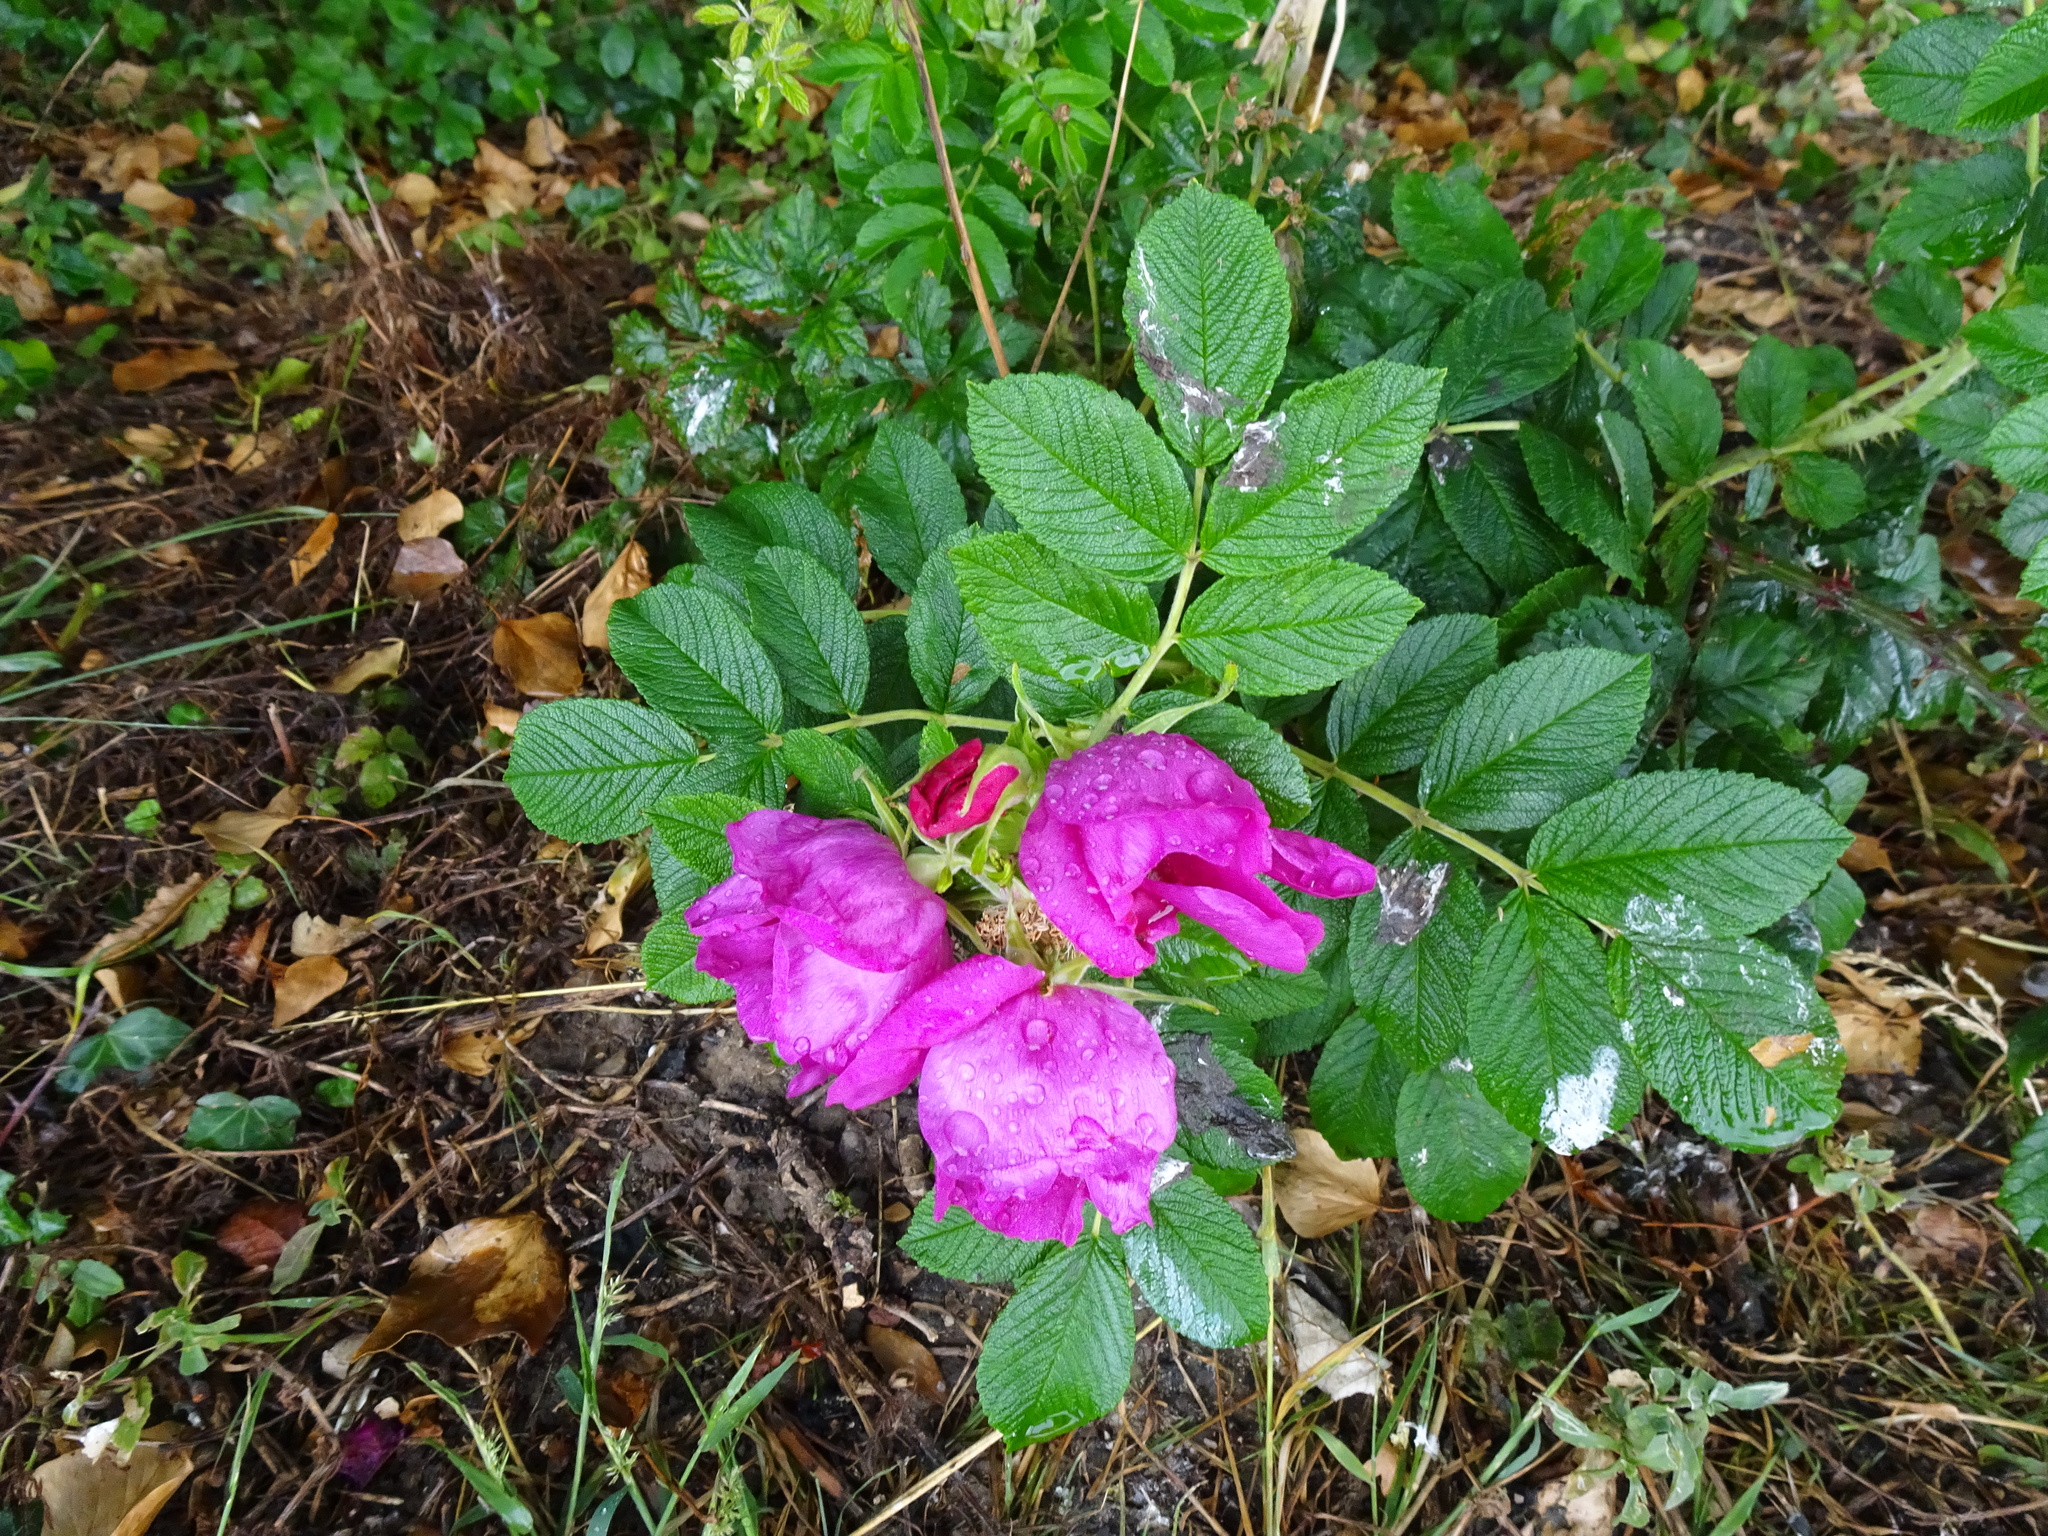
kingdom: Plantae
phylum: Tracheophyta
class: Magnoliopsida
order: Rosales
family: Rosaceae
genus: Rosa
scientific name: Rosa rugosa
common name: Japanese rose
